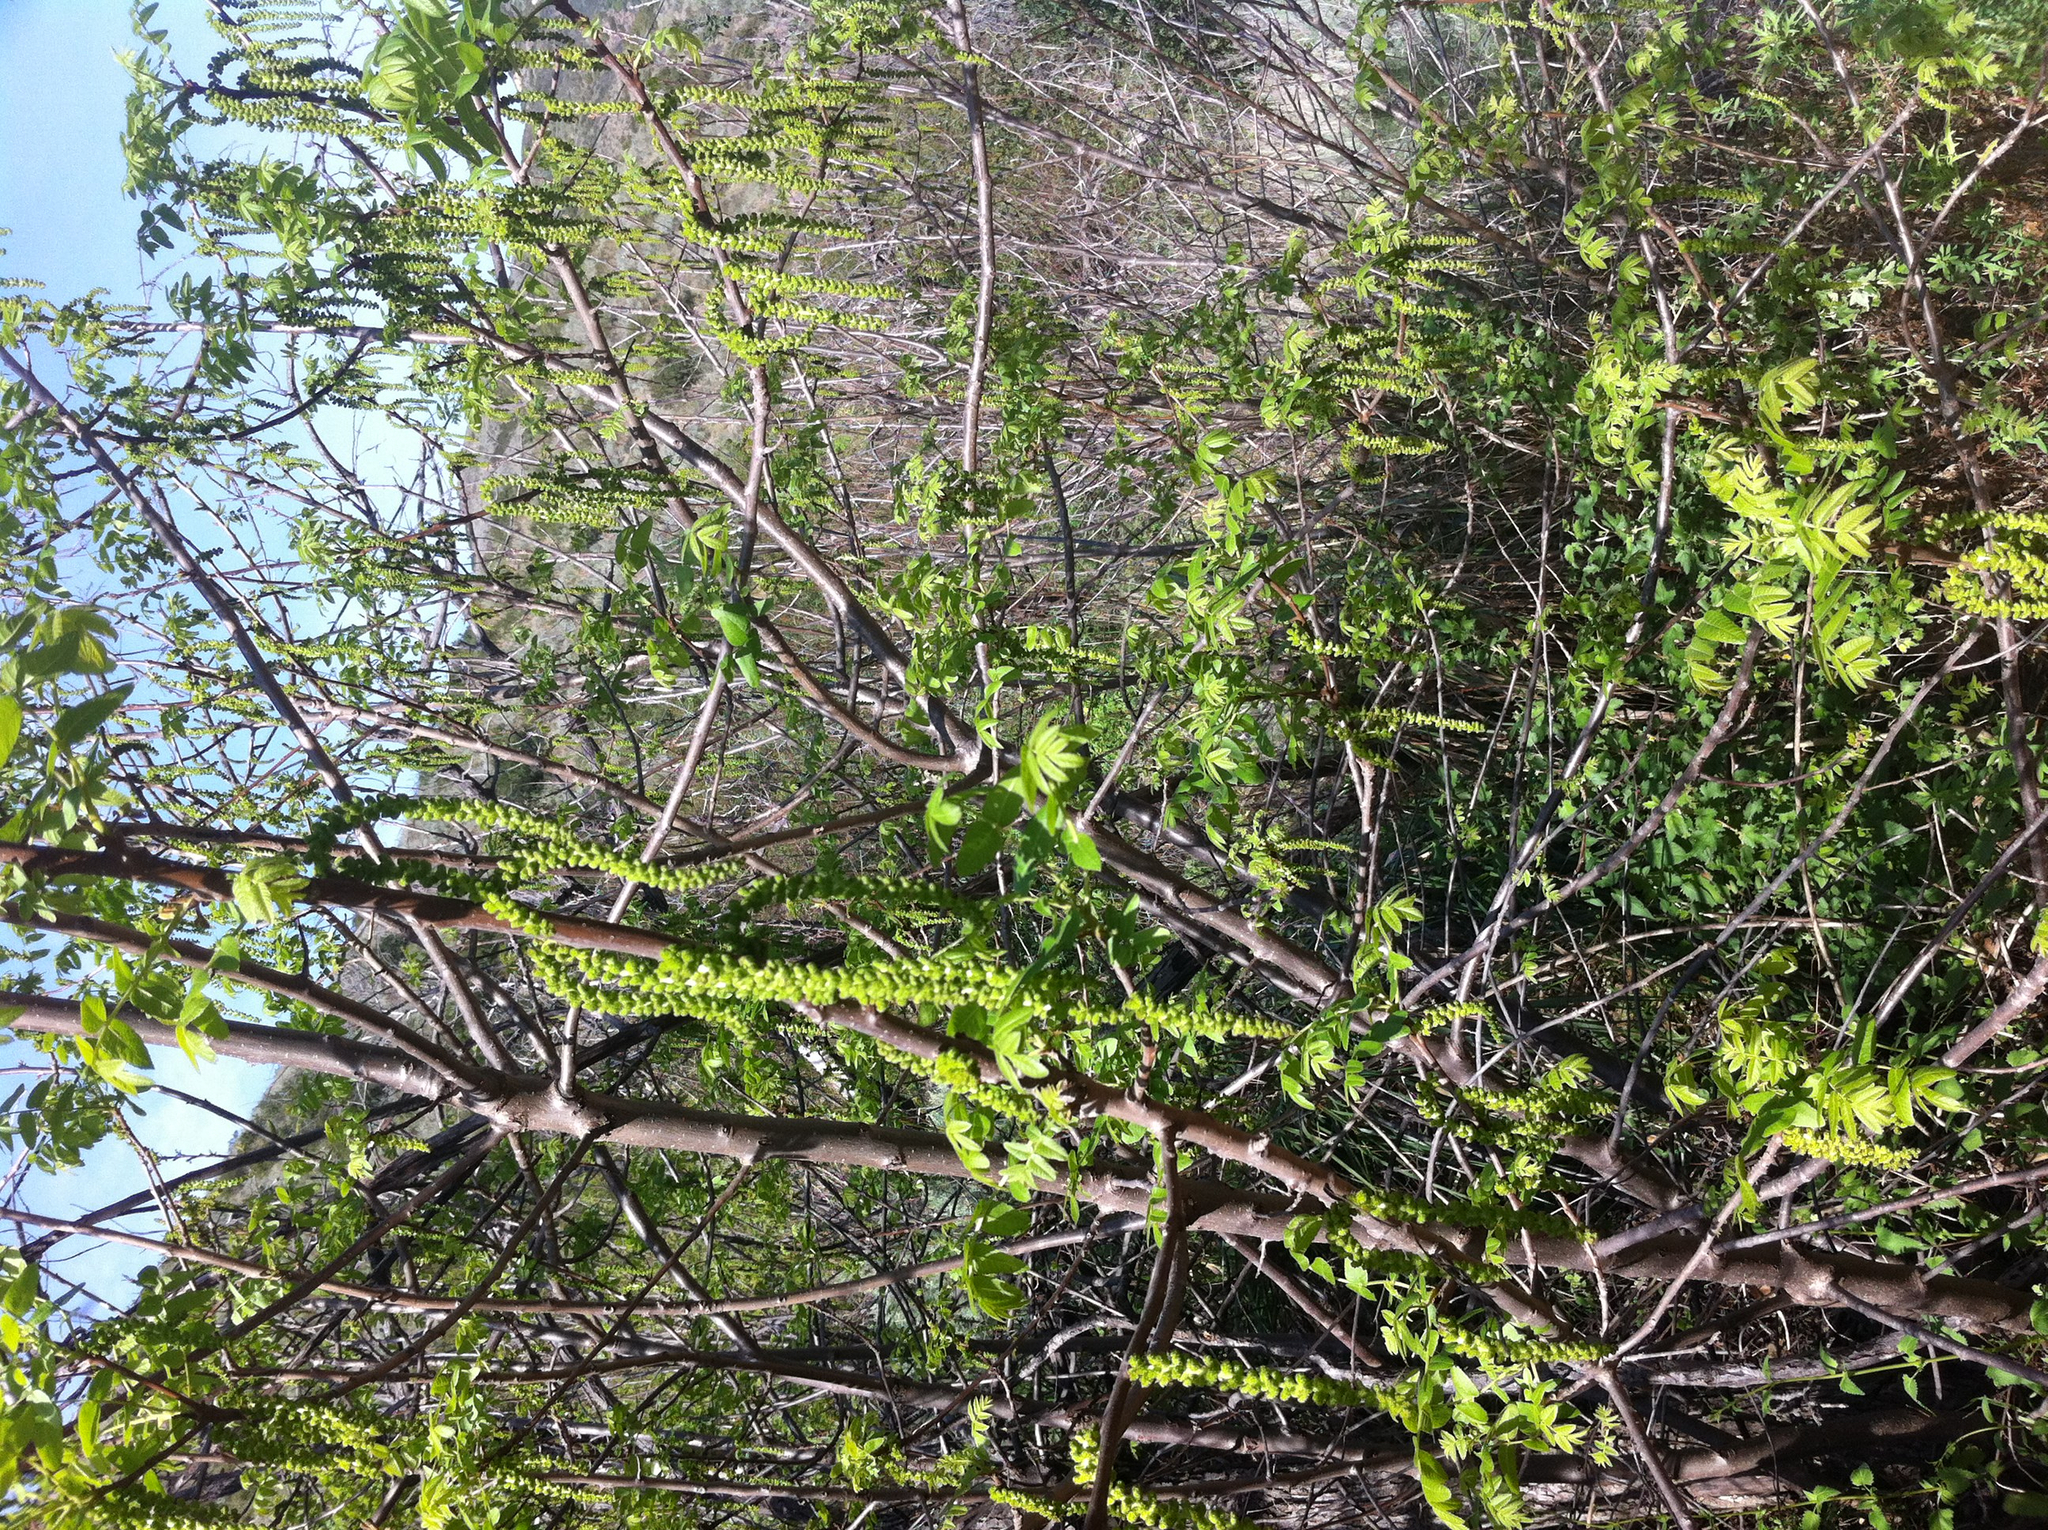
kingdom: Plantae
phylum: Tracheophyta
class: Magnoliopsida
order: Fagales
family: Juglandaceae
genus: Juglans
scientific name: Juglans californica
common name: Southern california black walnut
